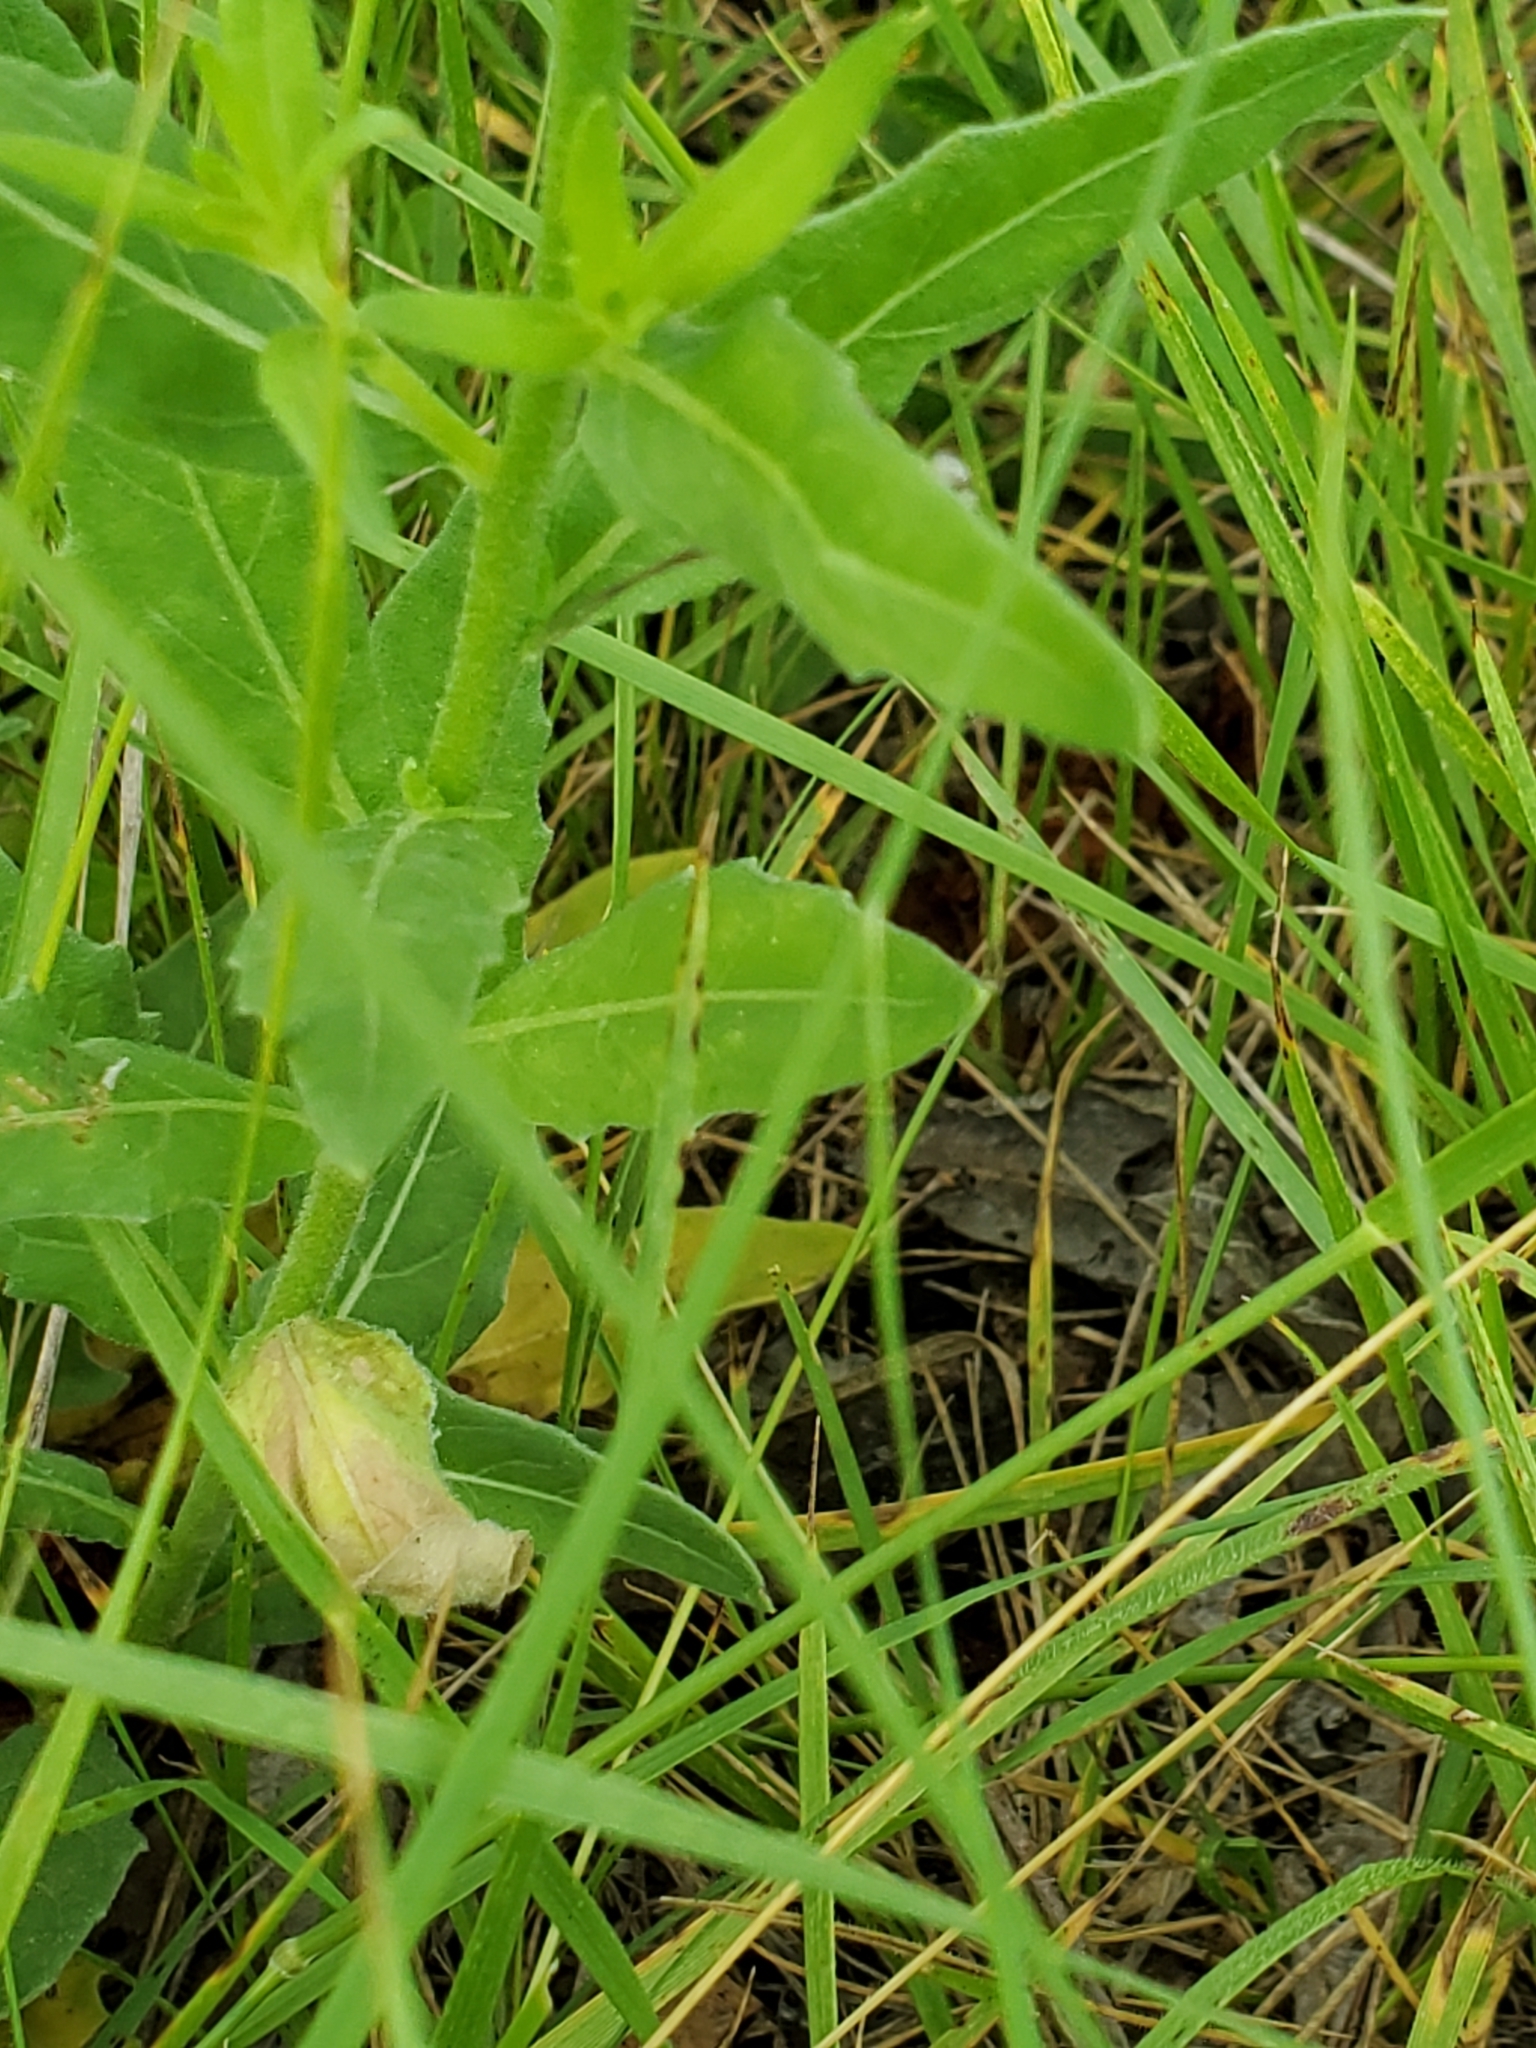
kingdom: Plantae
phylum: Tracheophyta
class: Magnoliopsida
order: Myrtales
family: Onagraceae
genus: Oenothera
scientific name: Oenothera suffulta
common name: Kisses
